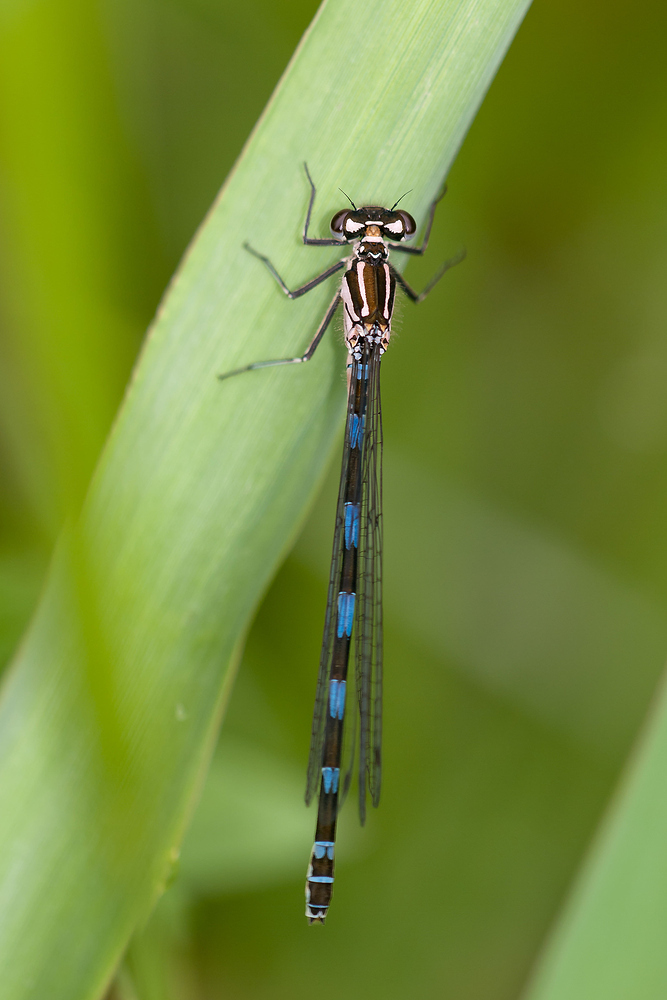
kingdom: Animalia
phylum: Arthropoda
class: Insecta
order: Odonata
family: Coenagrionidae
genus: Coenagrion
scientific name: Coenagrion pulchellum
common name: Variable bluet
